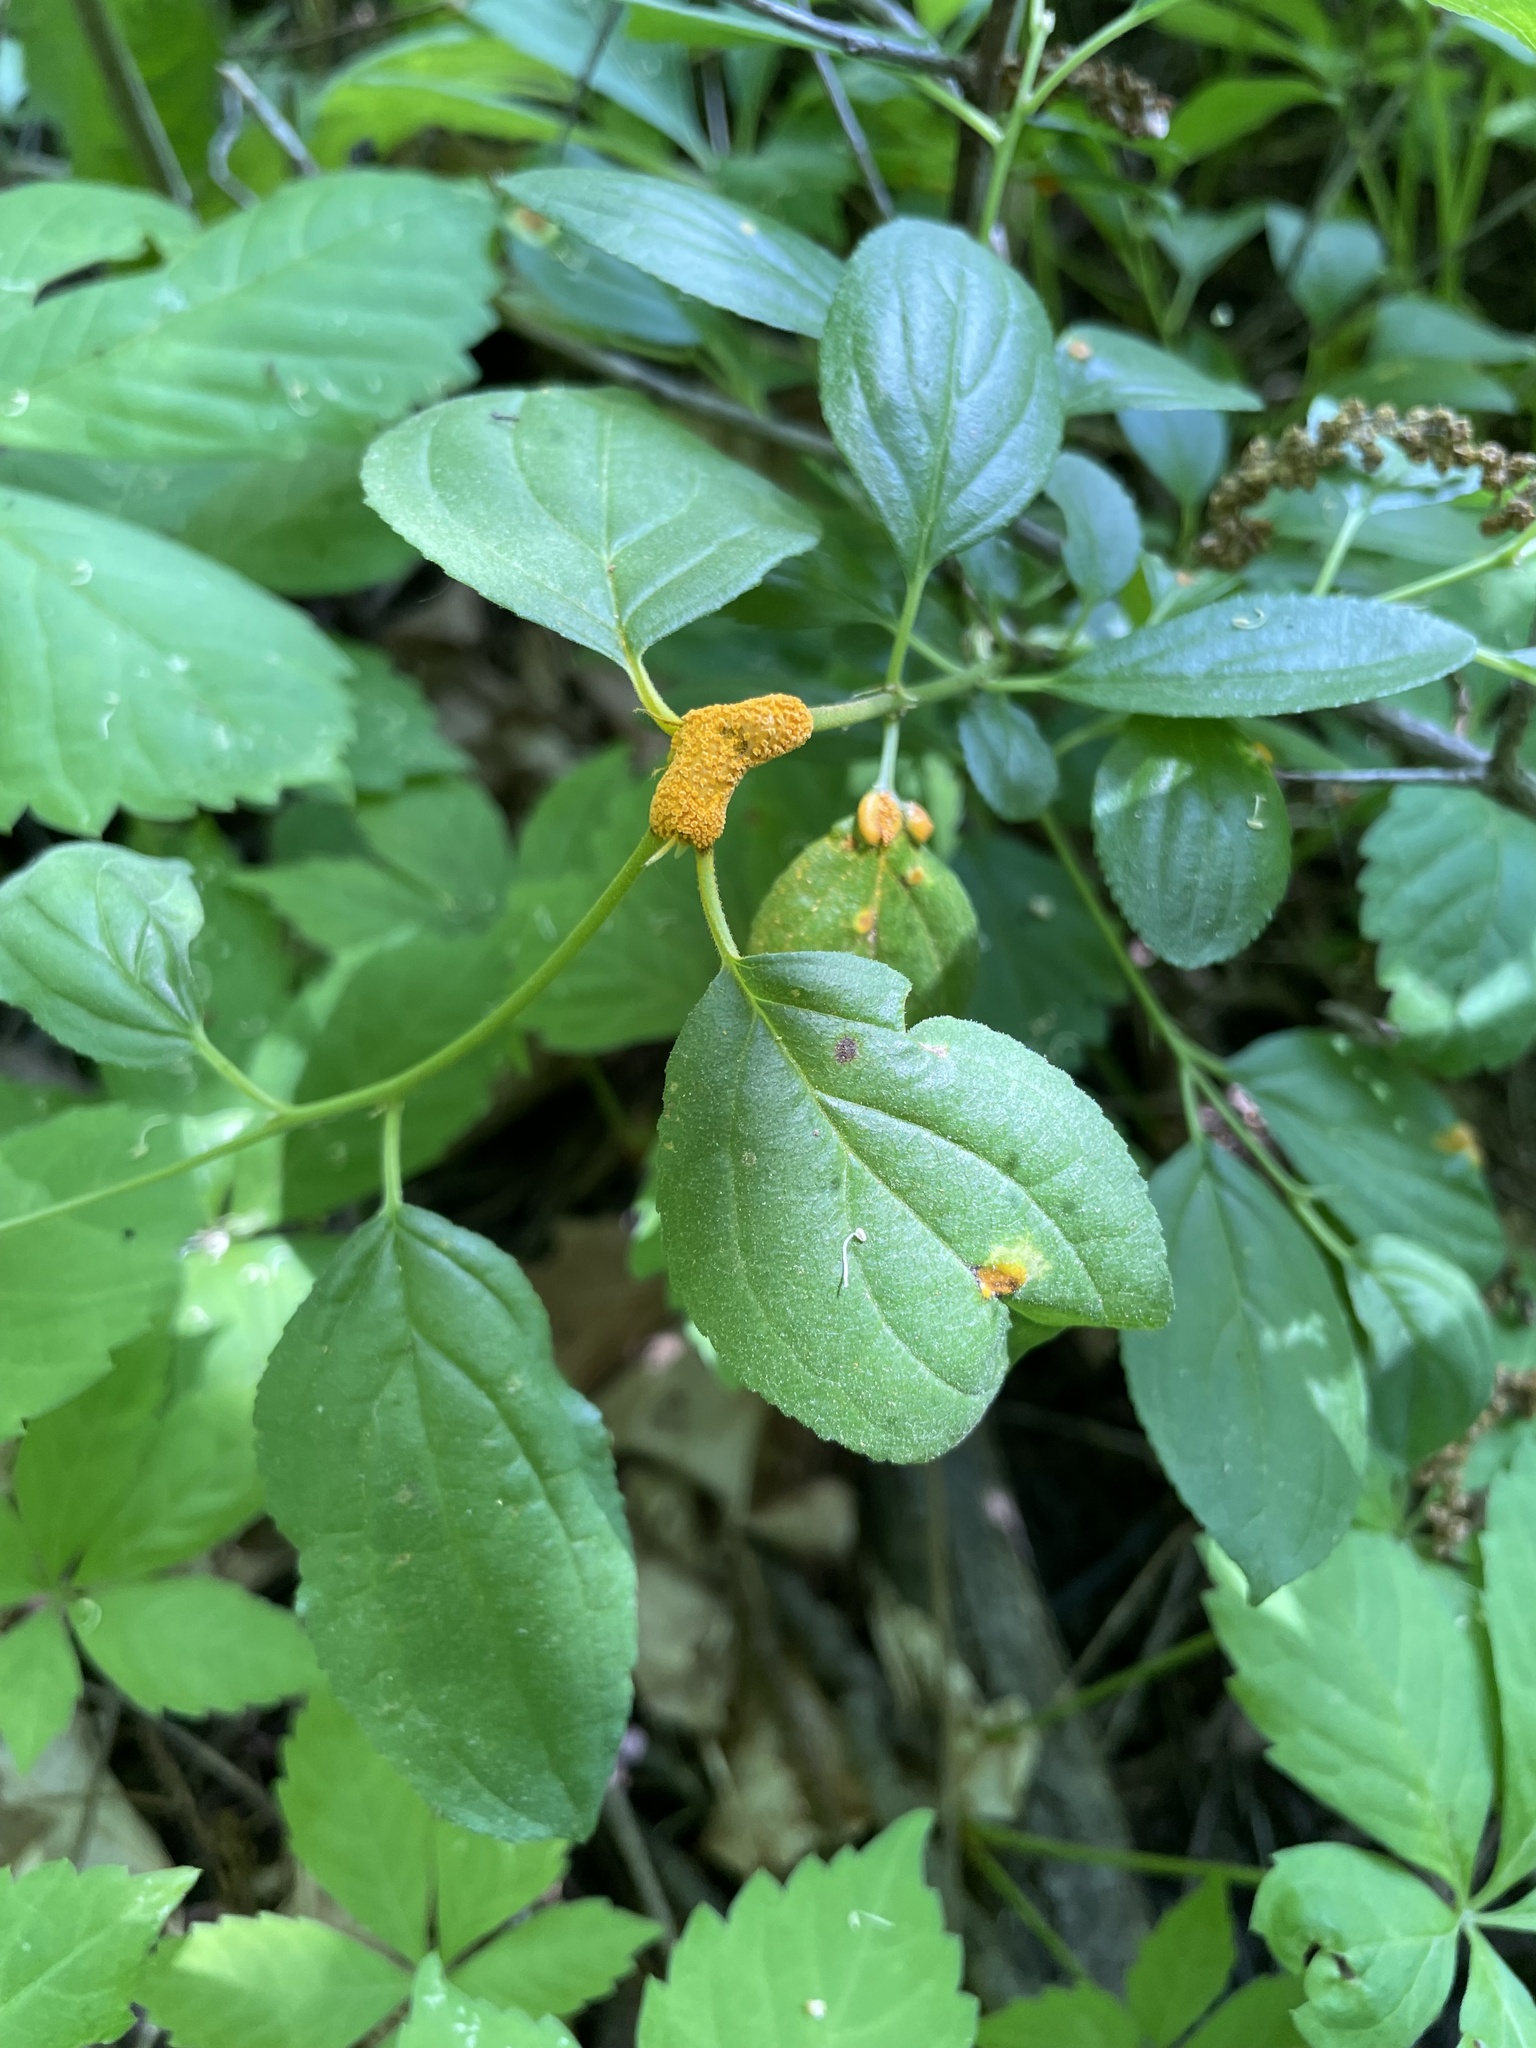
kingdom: Plantae
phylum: Tracheophyta
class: Magnoliopsida
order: Rosales
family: Rhamnaceae
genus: Rhamnus
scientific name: Rhamnus cathartica
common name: Common buckthorn
